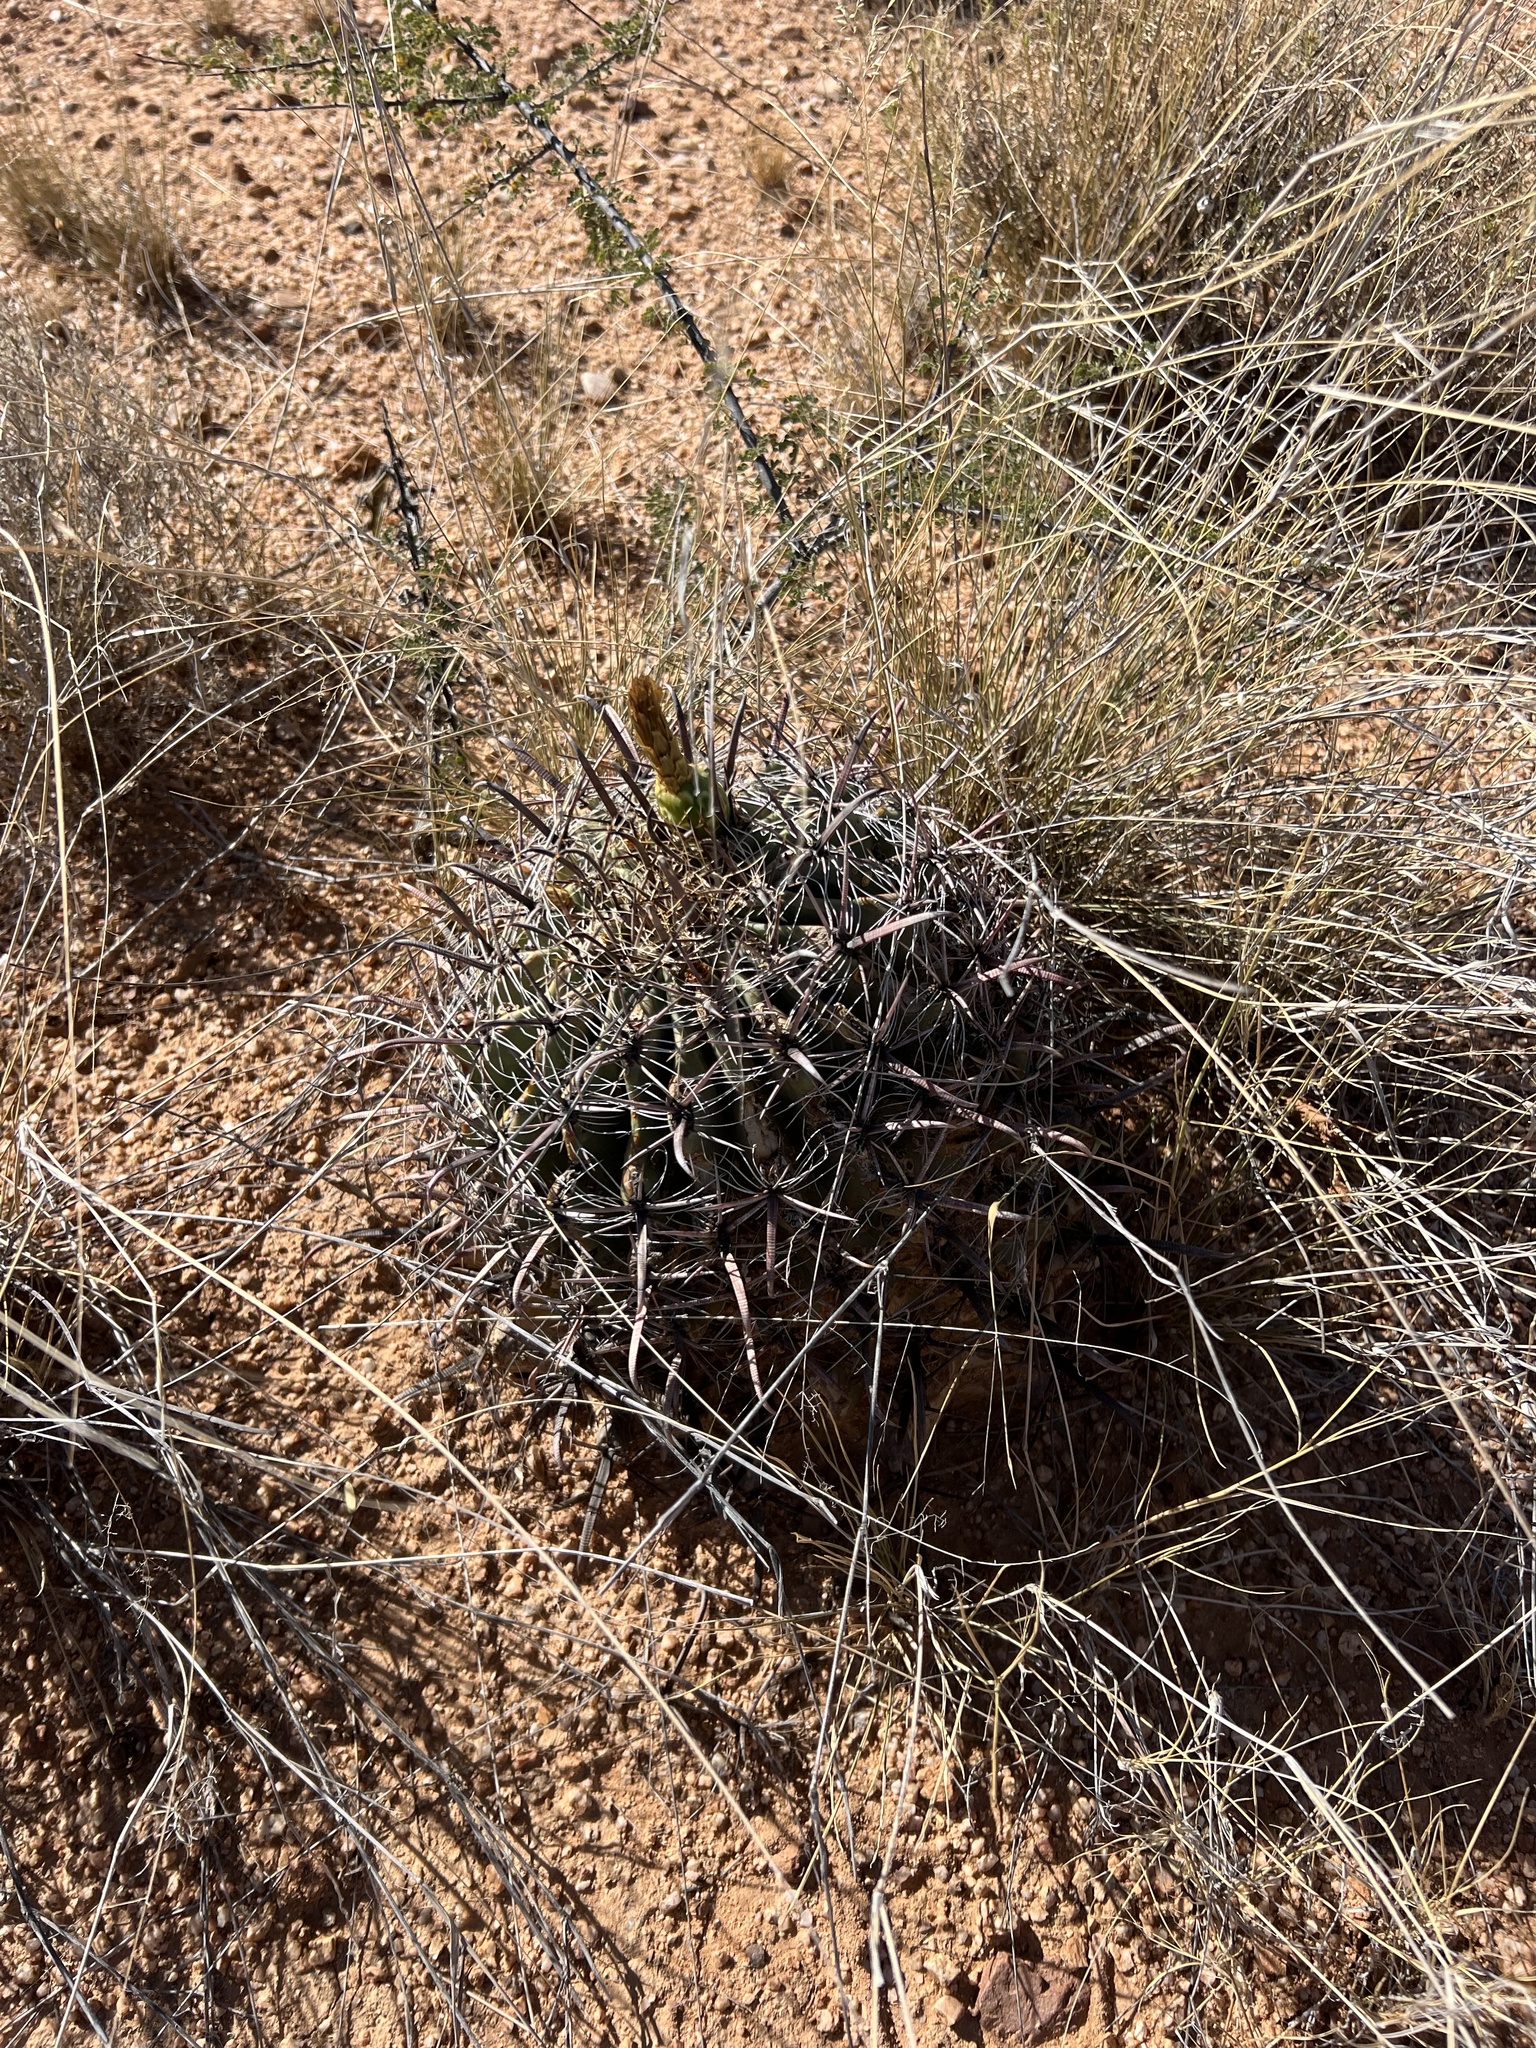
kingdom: Plantae
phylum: Tracheophyta
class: Magnoliopsida
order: Caryophyllales
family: Cactaceae
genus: Ferocactus
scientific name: Ferocactus wislizeni
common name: Candy barrel cactus
